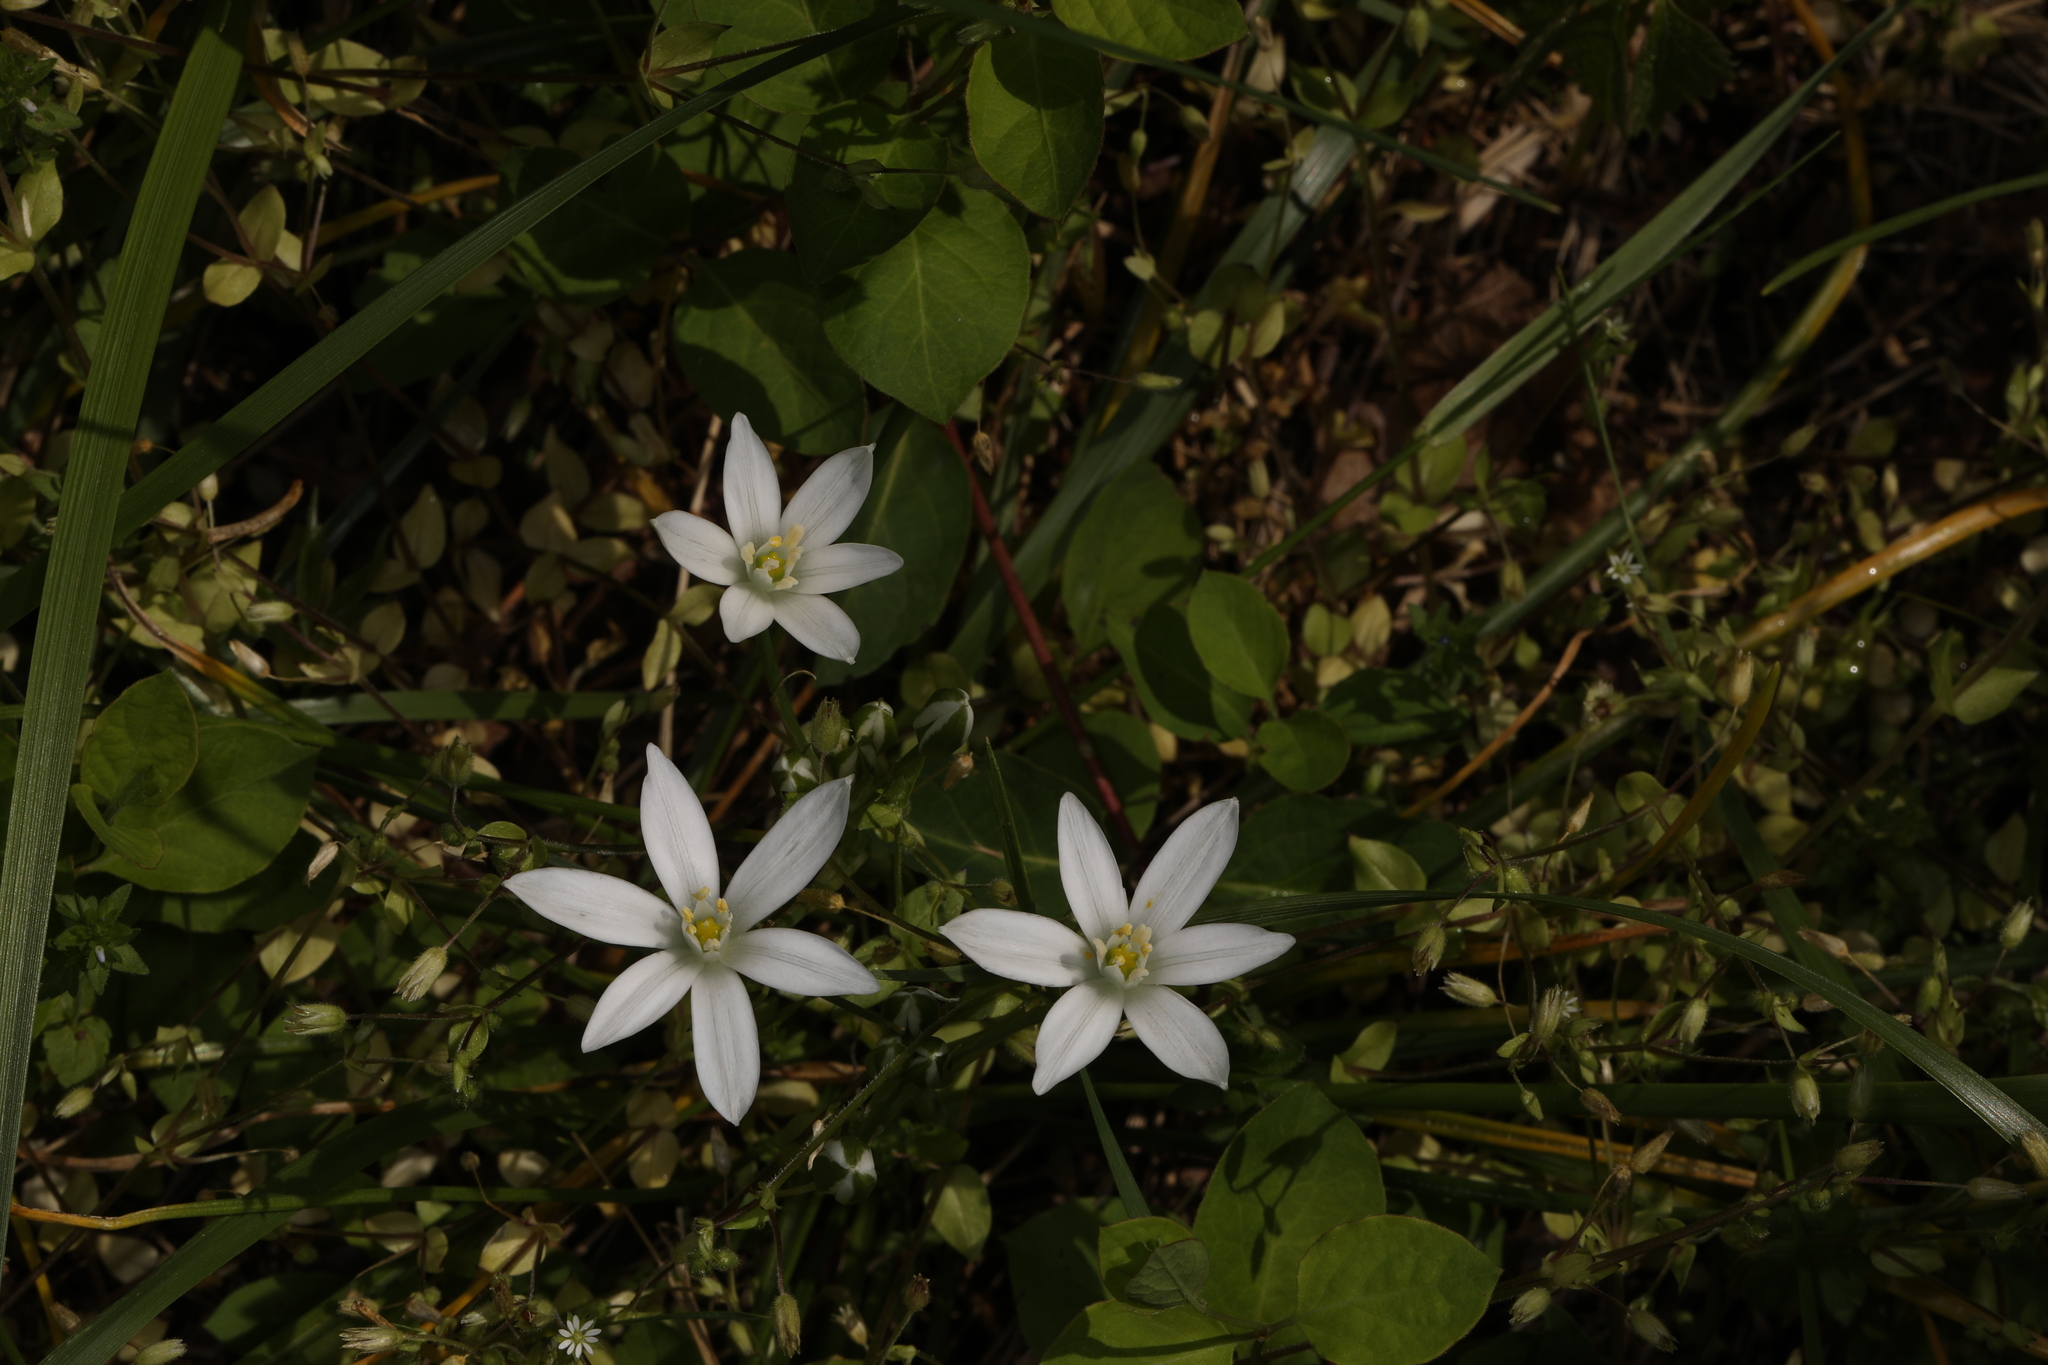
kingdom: Plantae
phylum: Tracheophyta
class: Liliopsida
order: Asparagales
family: Asparagaceae
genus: Ornithogalum
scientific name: Ornithogalum umbellatum
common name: Garden star-of-bethlehem
